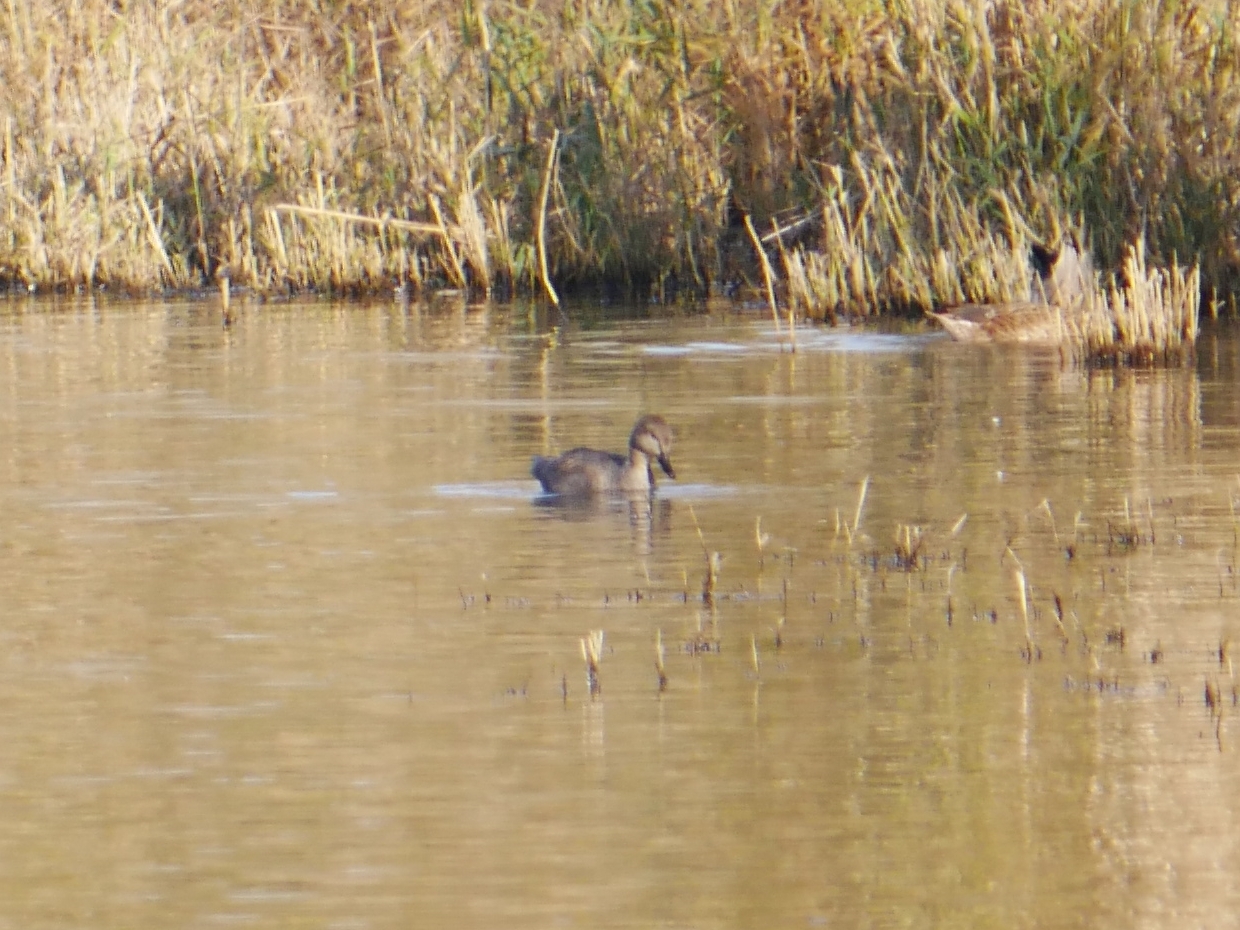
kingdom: Animalia
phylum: Chordata
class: Aves
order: Anseriformes
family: Anatidae
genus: Mareca
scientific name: Mareca strepera
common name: Gadwall
